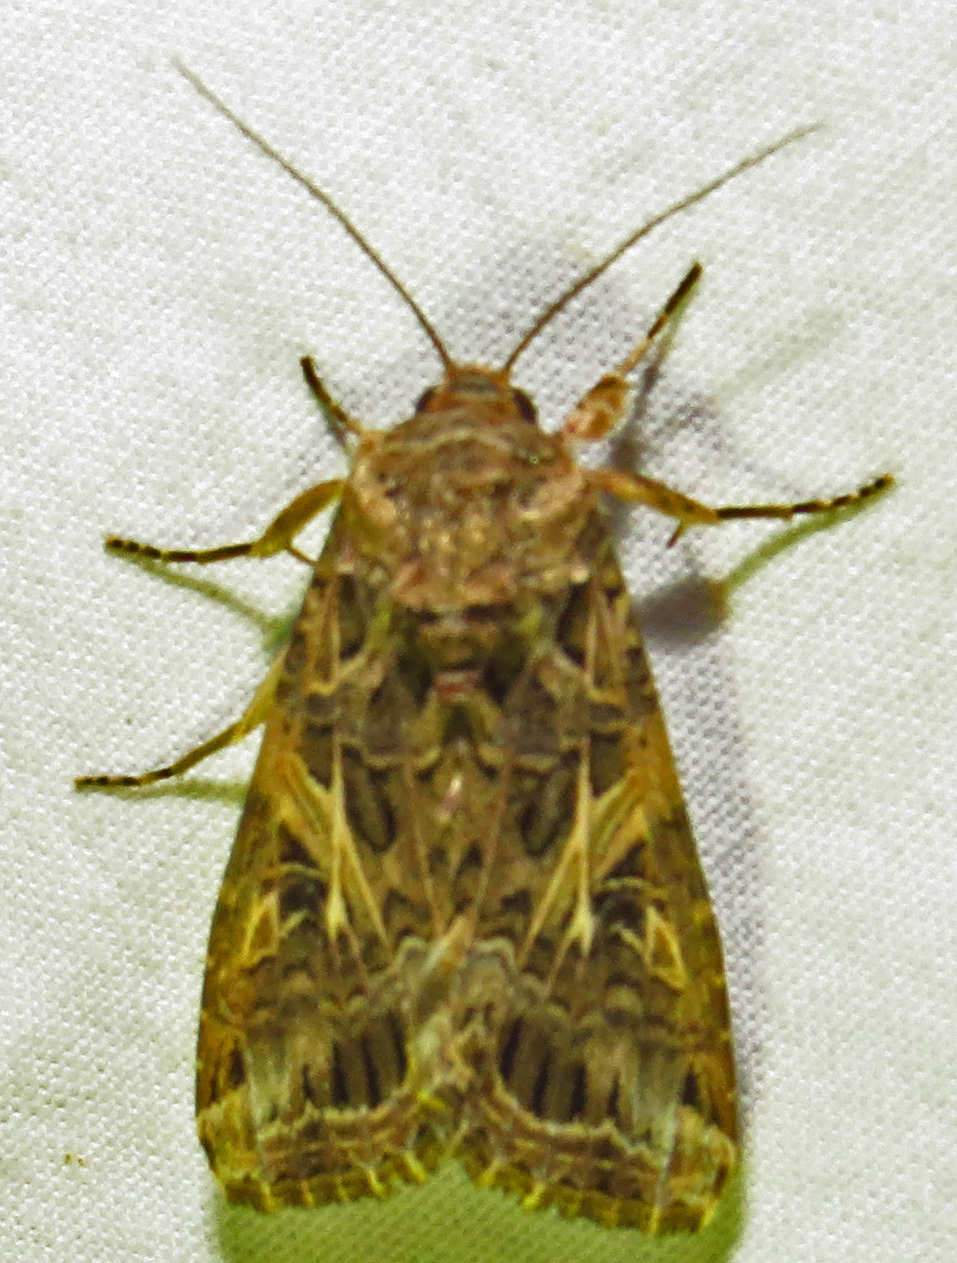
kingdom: Animalia
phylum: Arthropoda
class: Insecta
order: Lepidoptera
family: Noctuidae
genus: Spodoptera
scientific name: Spodoptera ornithogalli
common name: Yellow-striped armyworm
